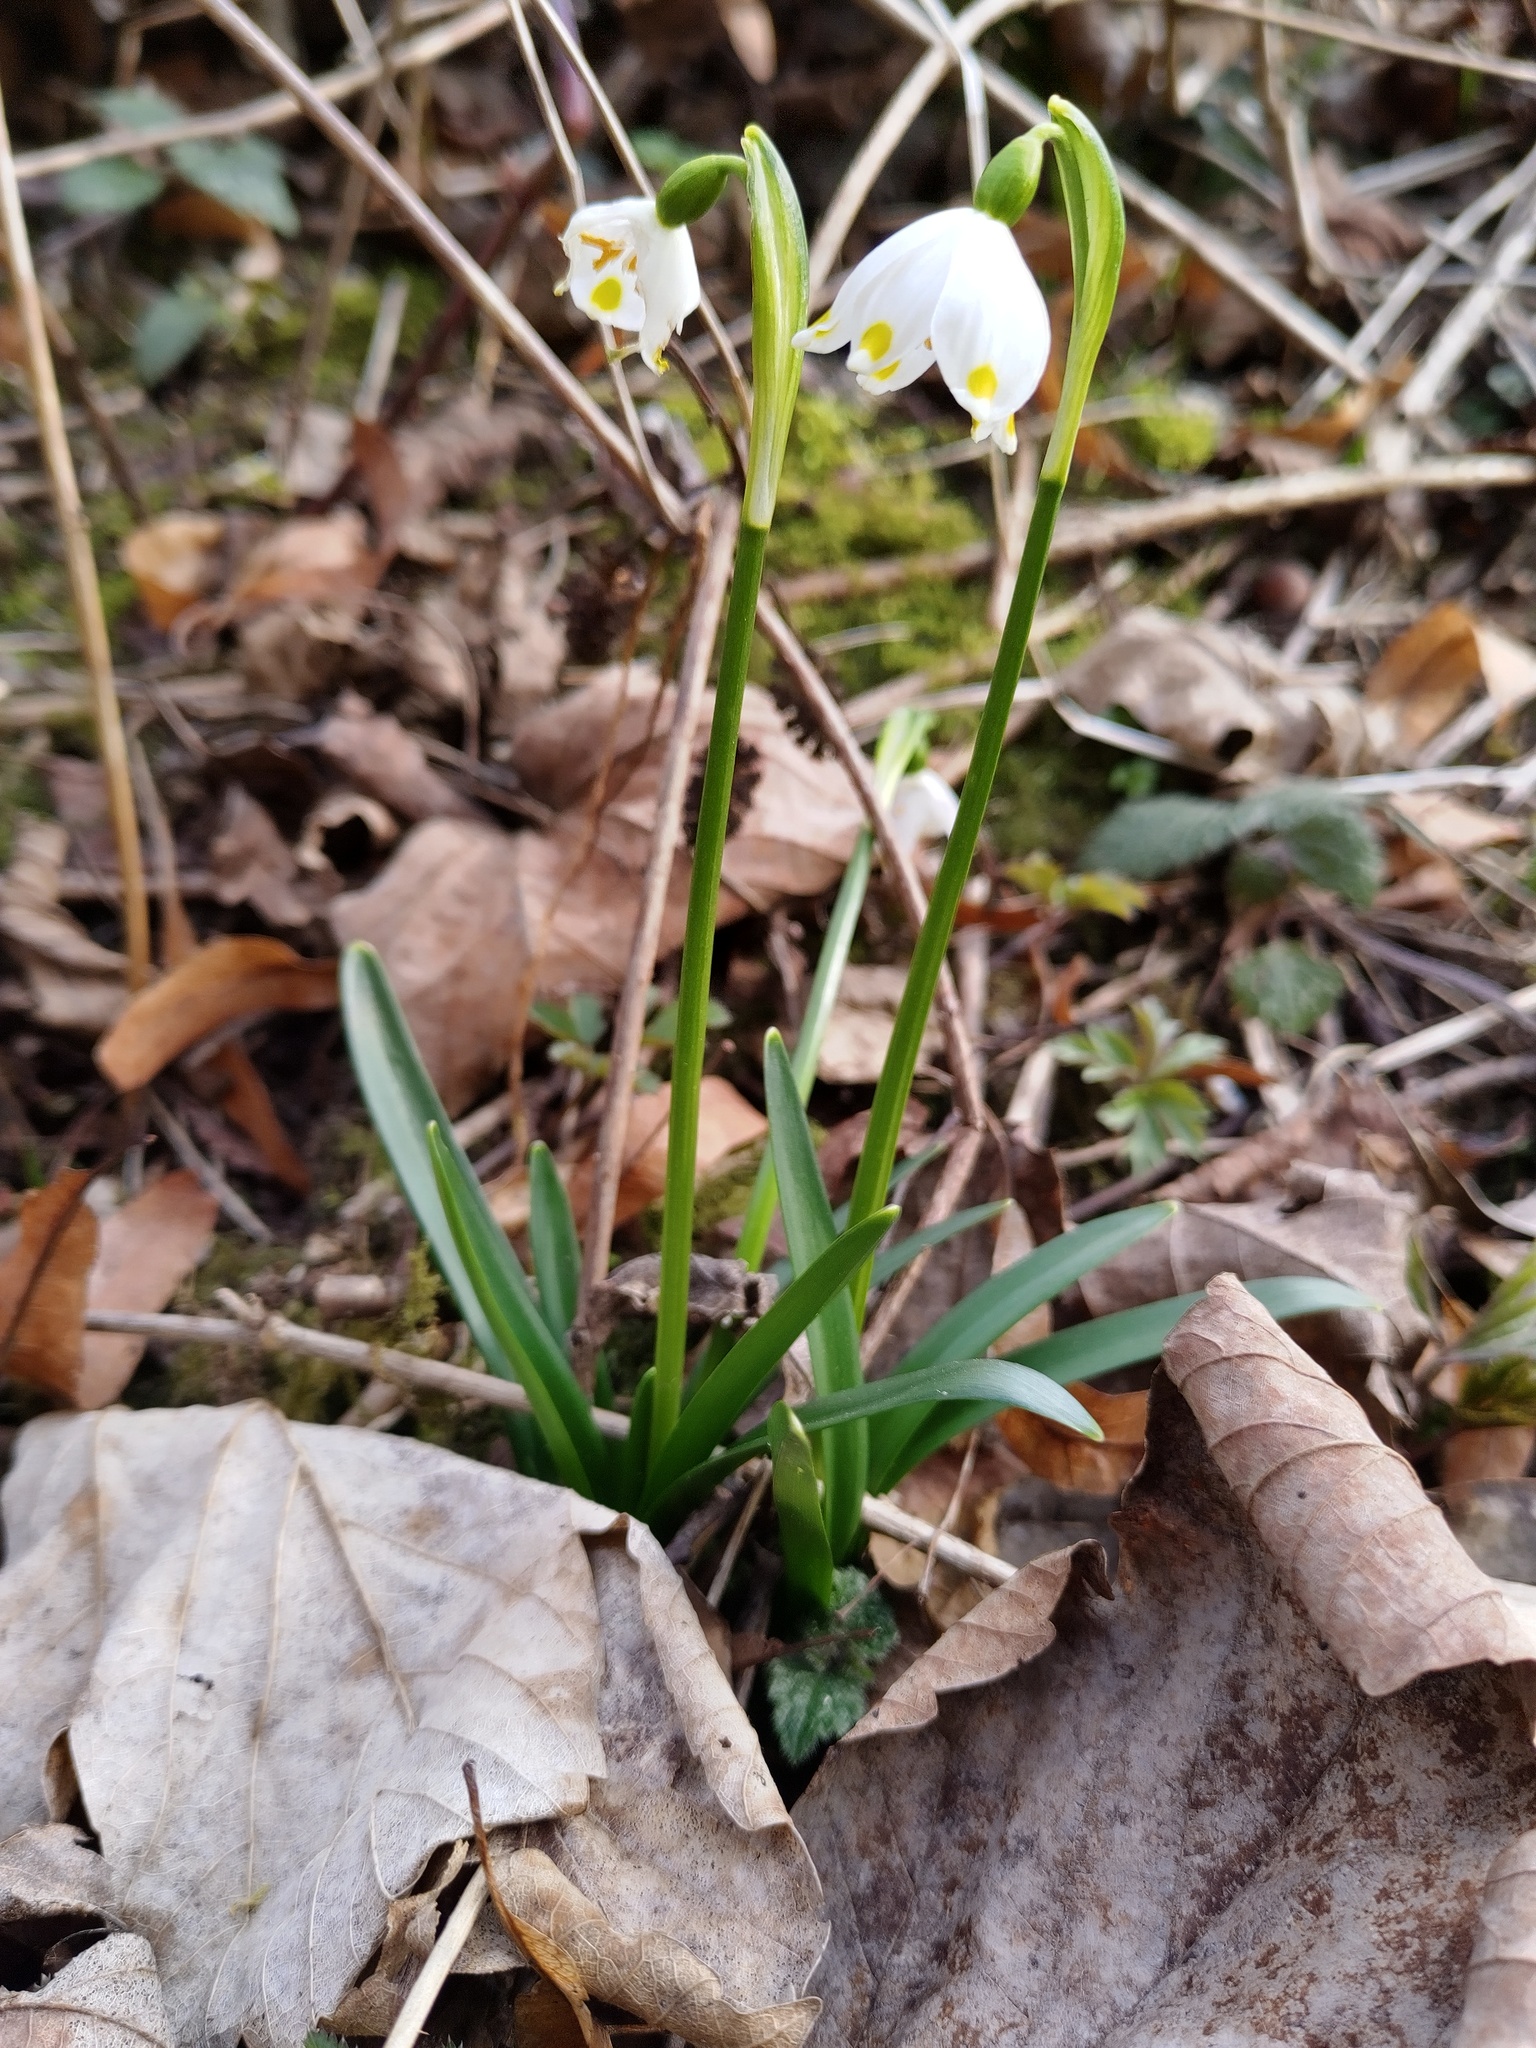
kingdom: Plantae
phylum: Tracheophyta
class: Liliopsida
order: Asparagales
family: Amaryllidaceae
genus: Leucojum
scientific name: Leucojum vernum
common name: Spring snowflake
